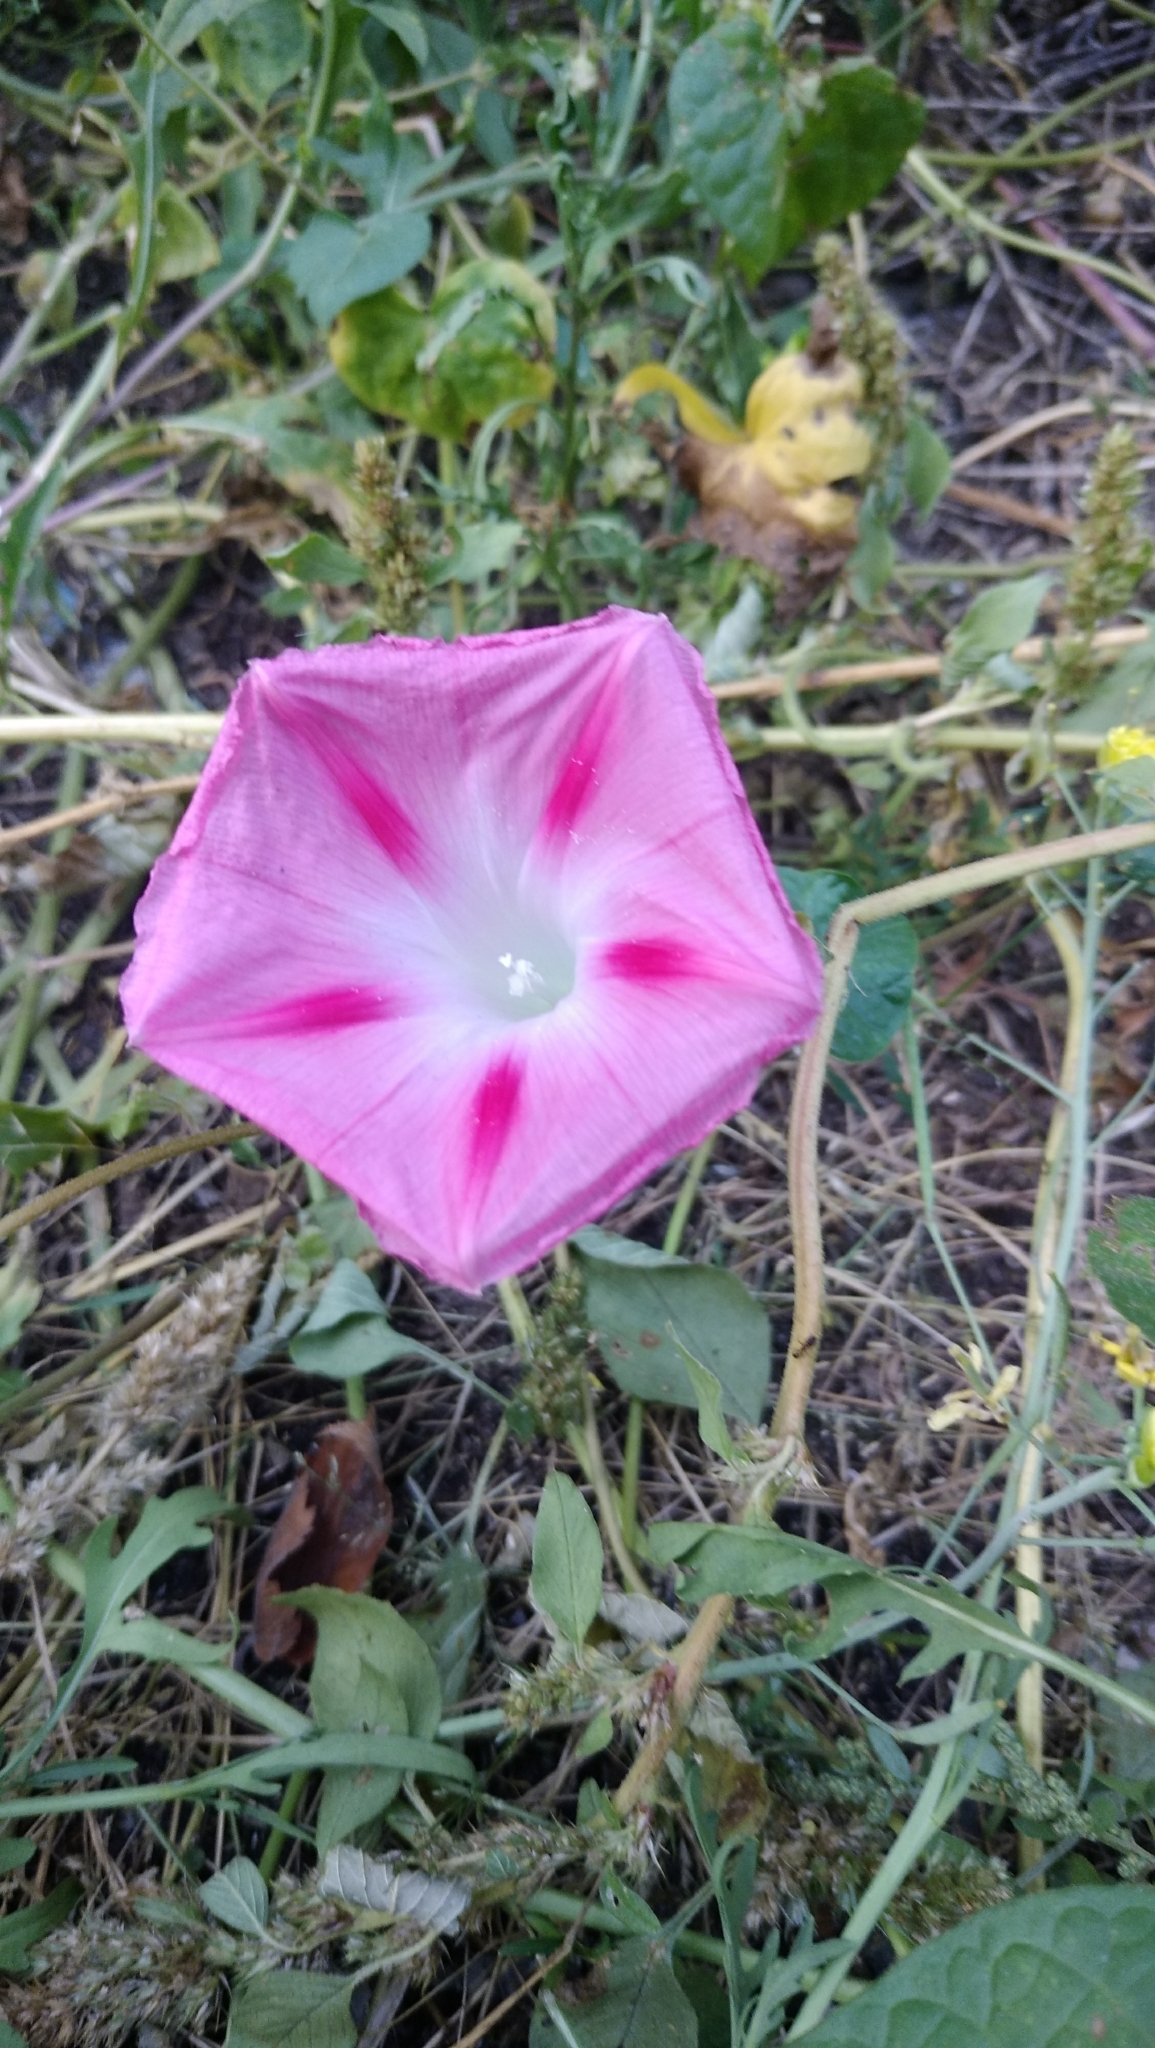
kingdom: Plantae
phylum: Tracheophyta
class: Magnoliopsida
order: Solanales
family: Convolvulaceae
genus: Ipomoea
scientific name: Ipomoea purpurea
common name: Common morning-glory
